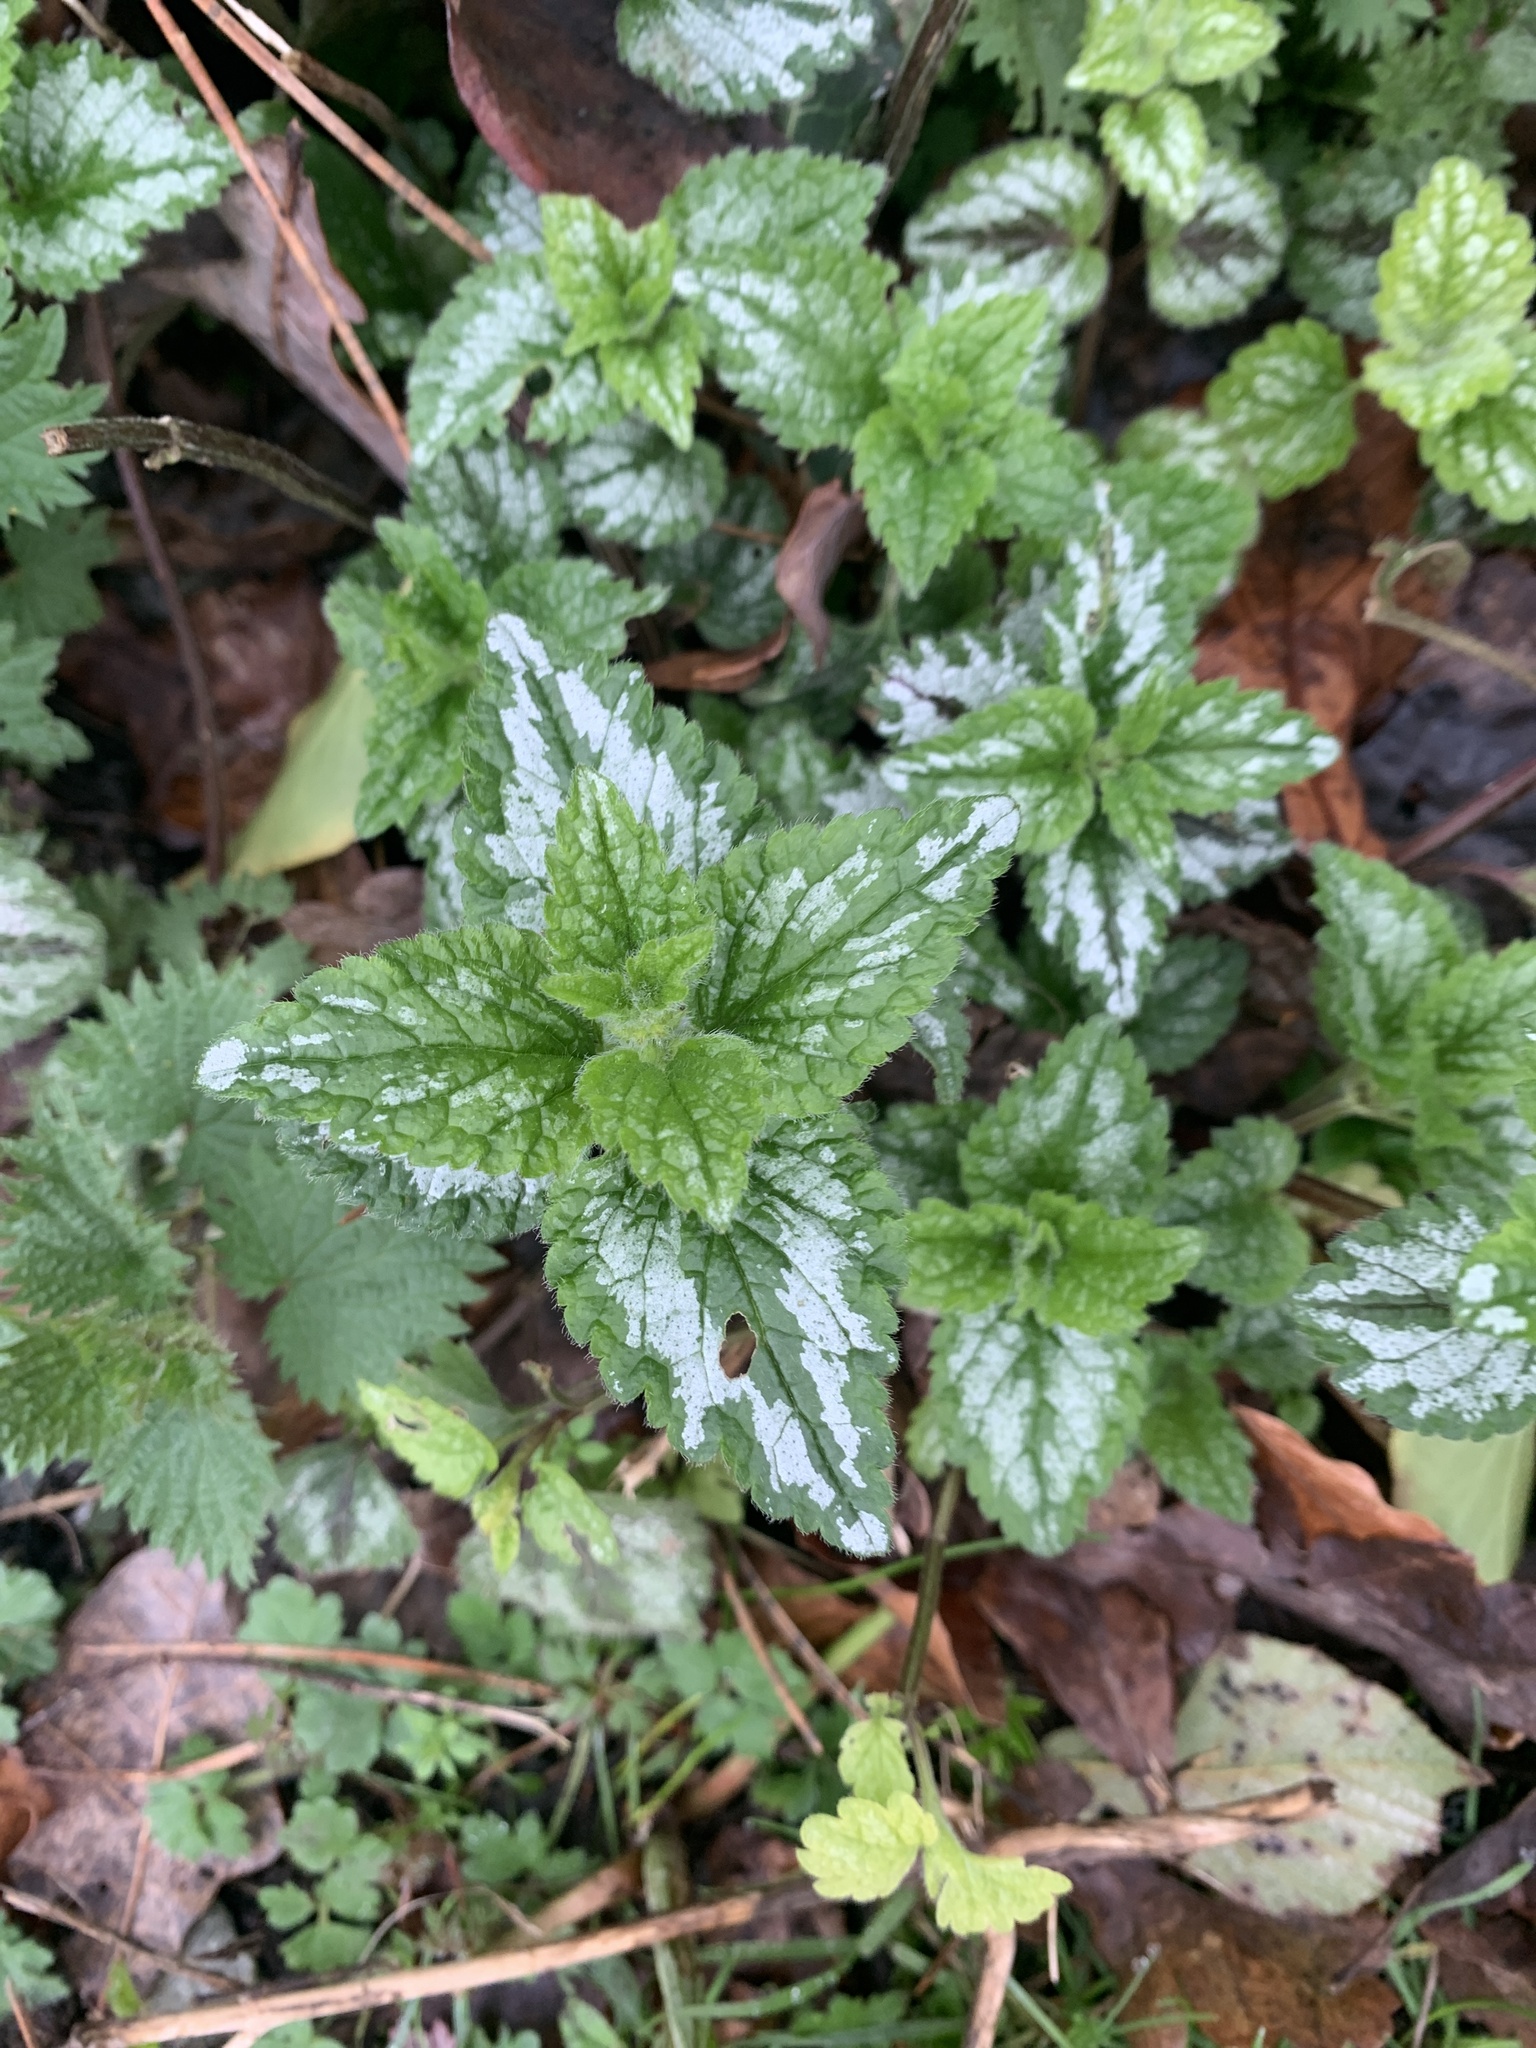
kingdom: Plantae
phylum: Tracheophyta
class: Magnoliopsida
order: Lamiales
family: Lamiaceae
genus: Lamium
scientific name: Lamium galeobdolon
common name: Yellow archangel
